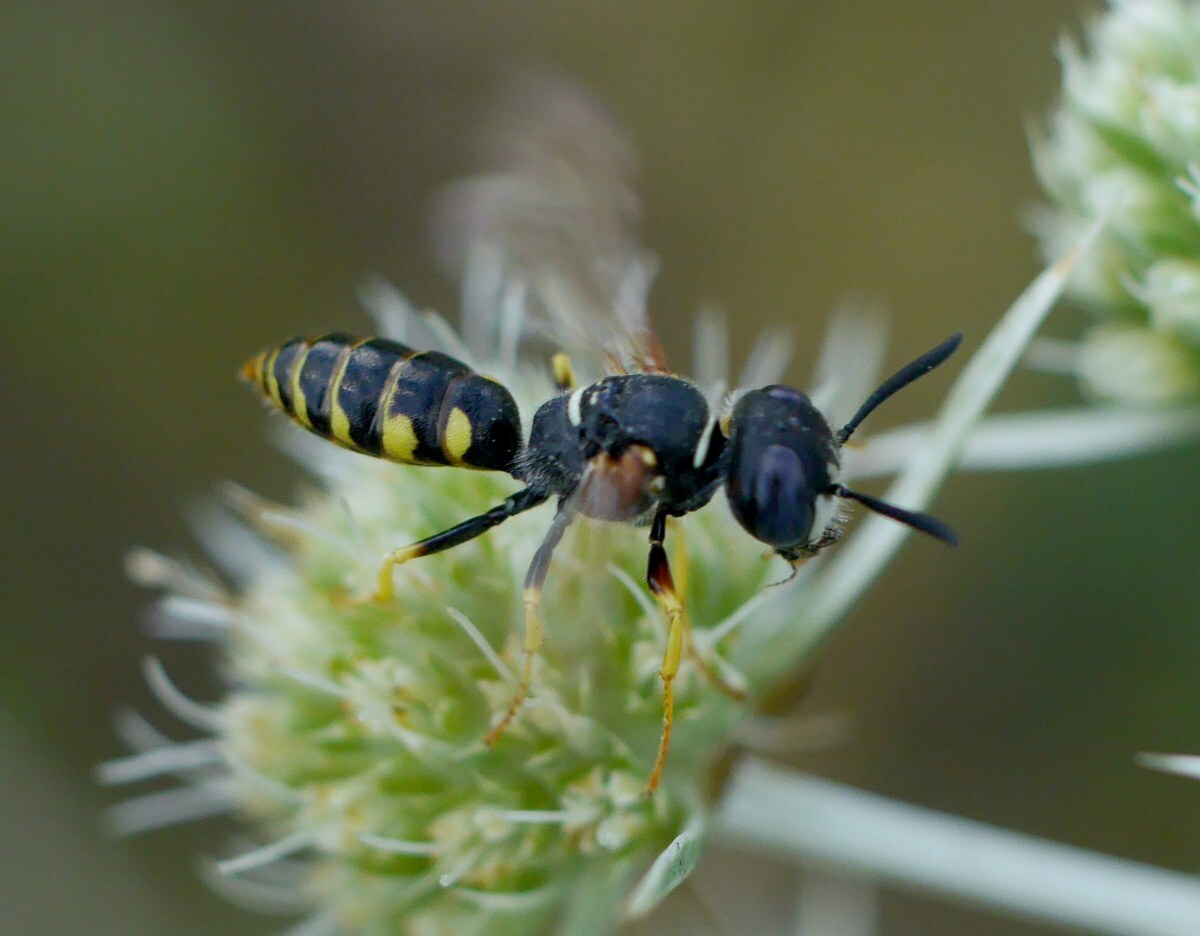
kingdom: Animalia
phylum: Arthropoda
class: Insecta
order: Hymenoptera
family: Crabronidae
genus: Philanthus
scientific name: Philanthus triangulum
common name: Bee wolf
